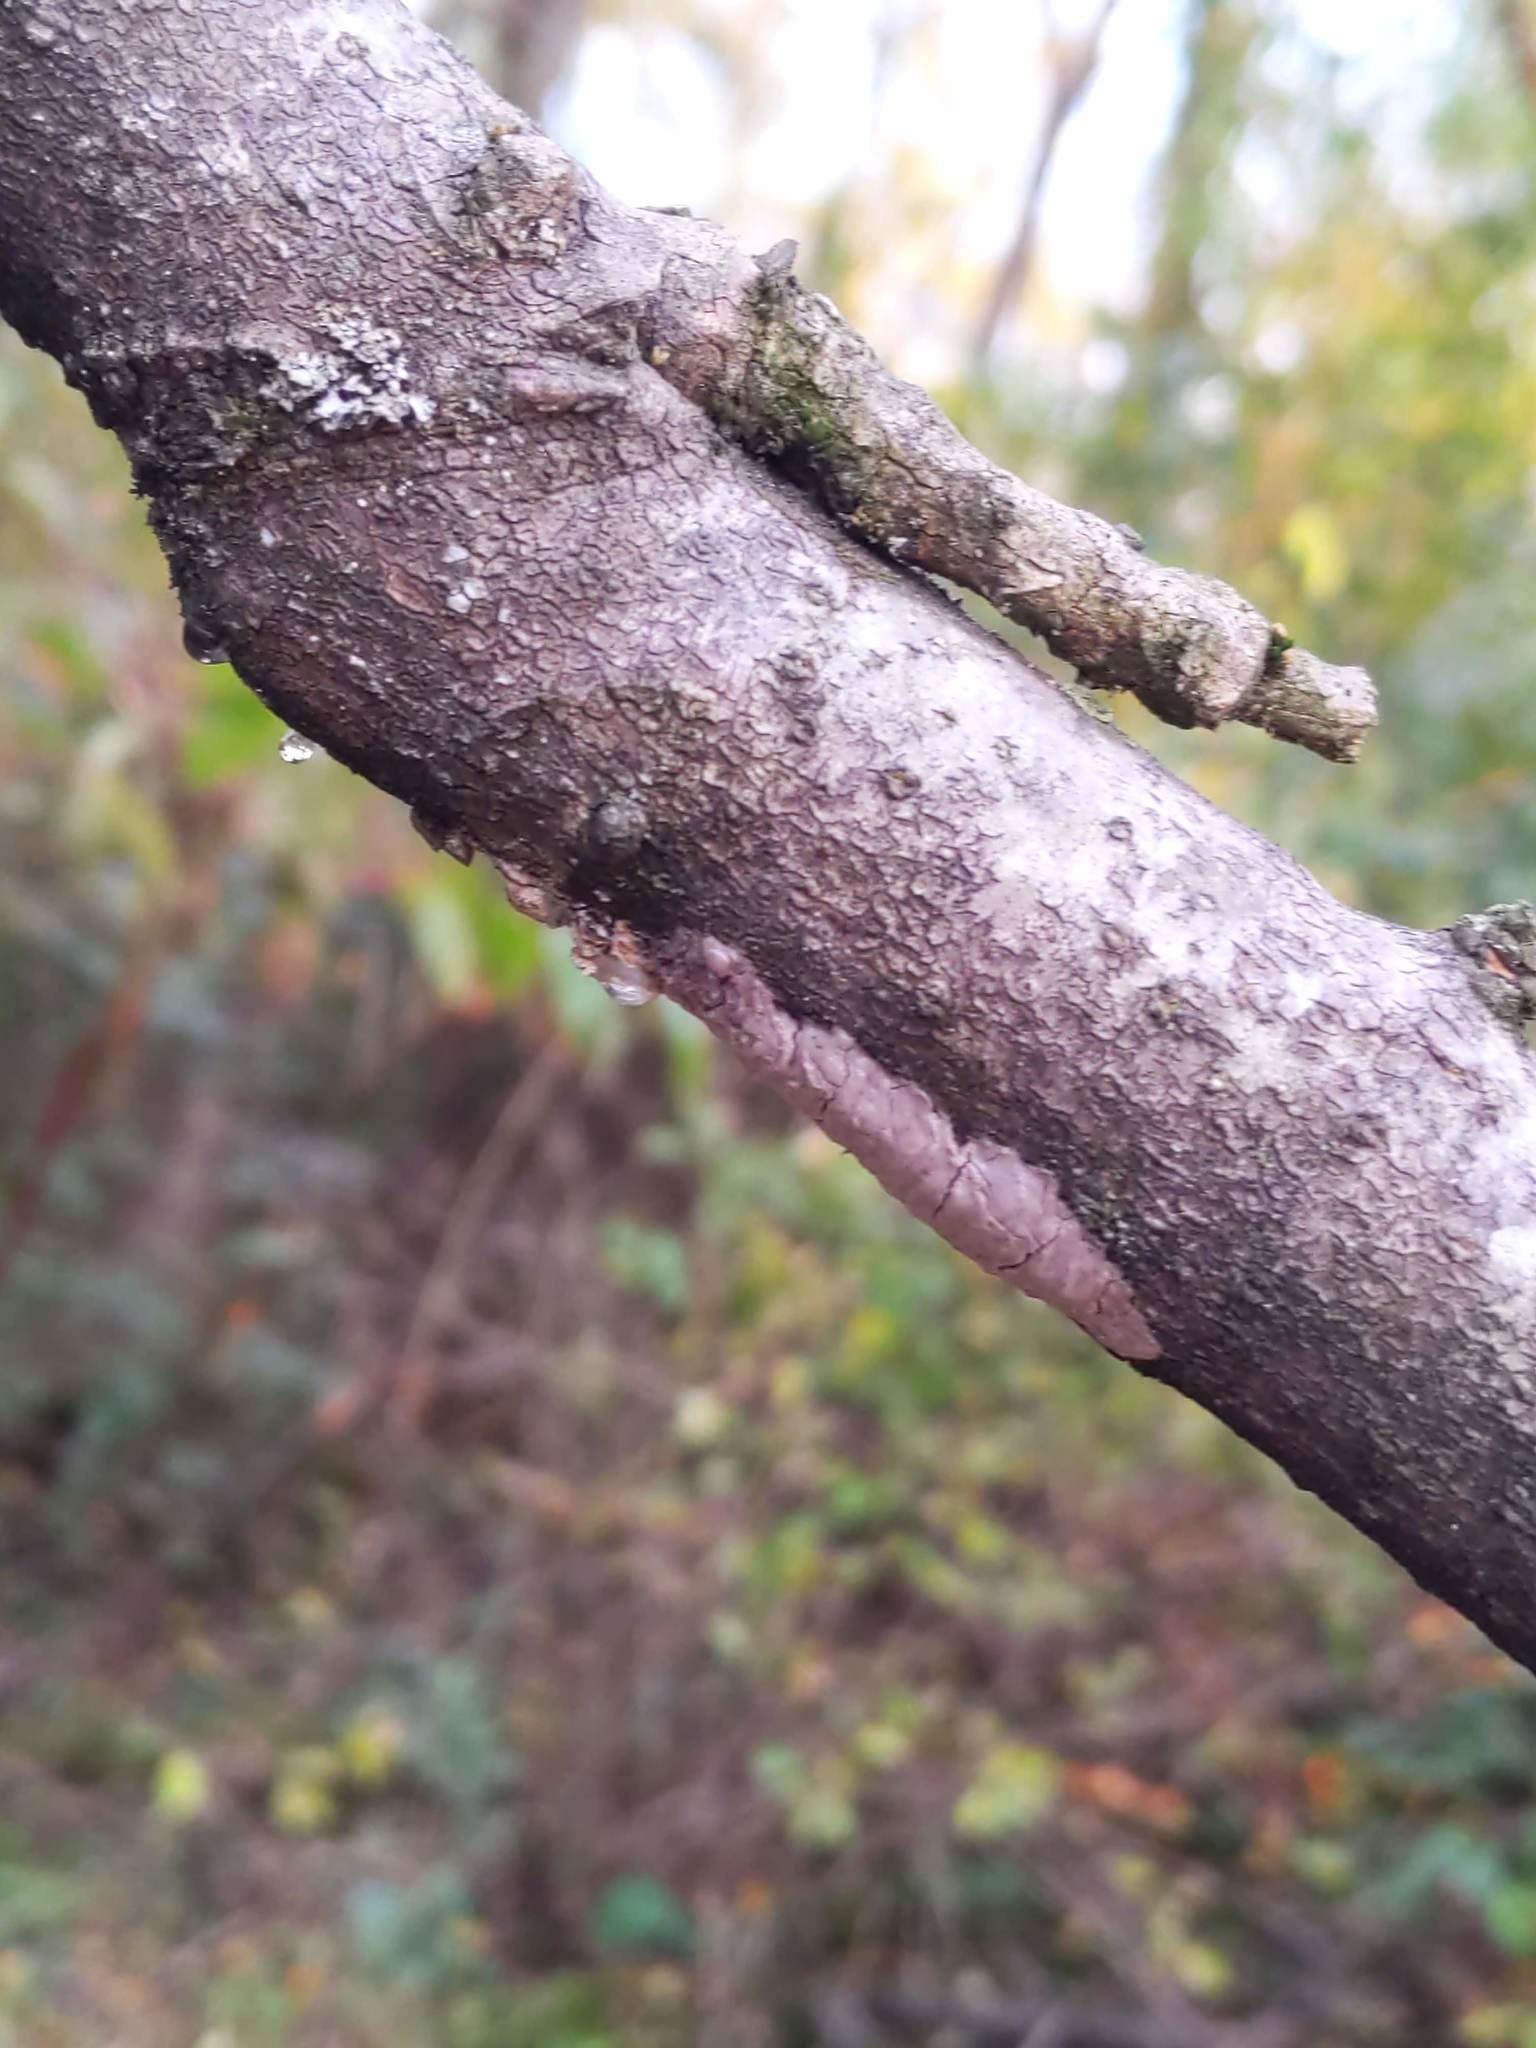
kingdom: Animalia
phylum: Arthropoda
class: Insecta
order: Hemiptera
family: Fulgoridae
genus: Lycorma
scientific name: Lycorma delicatula
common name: Spotted lanternfly
